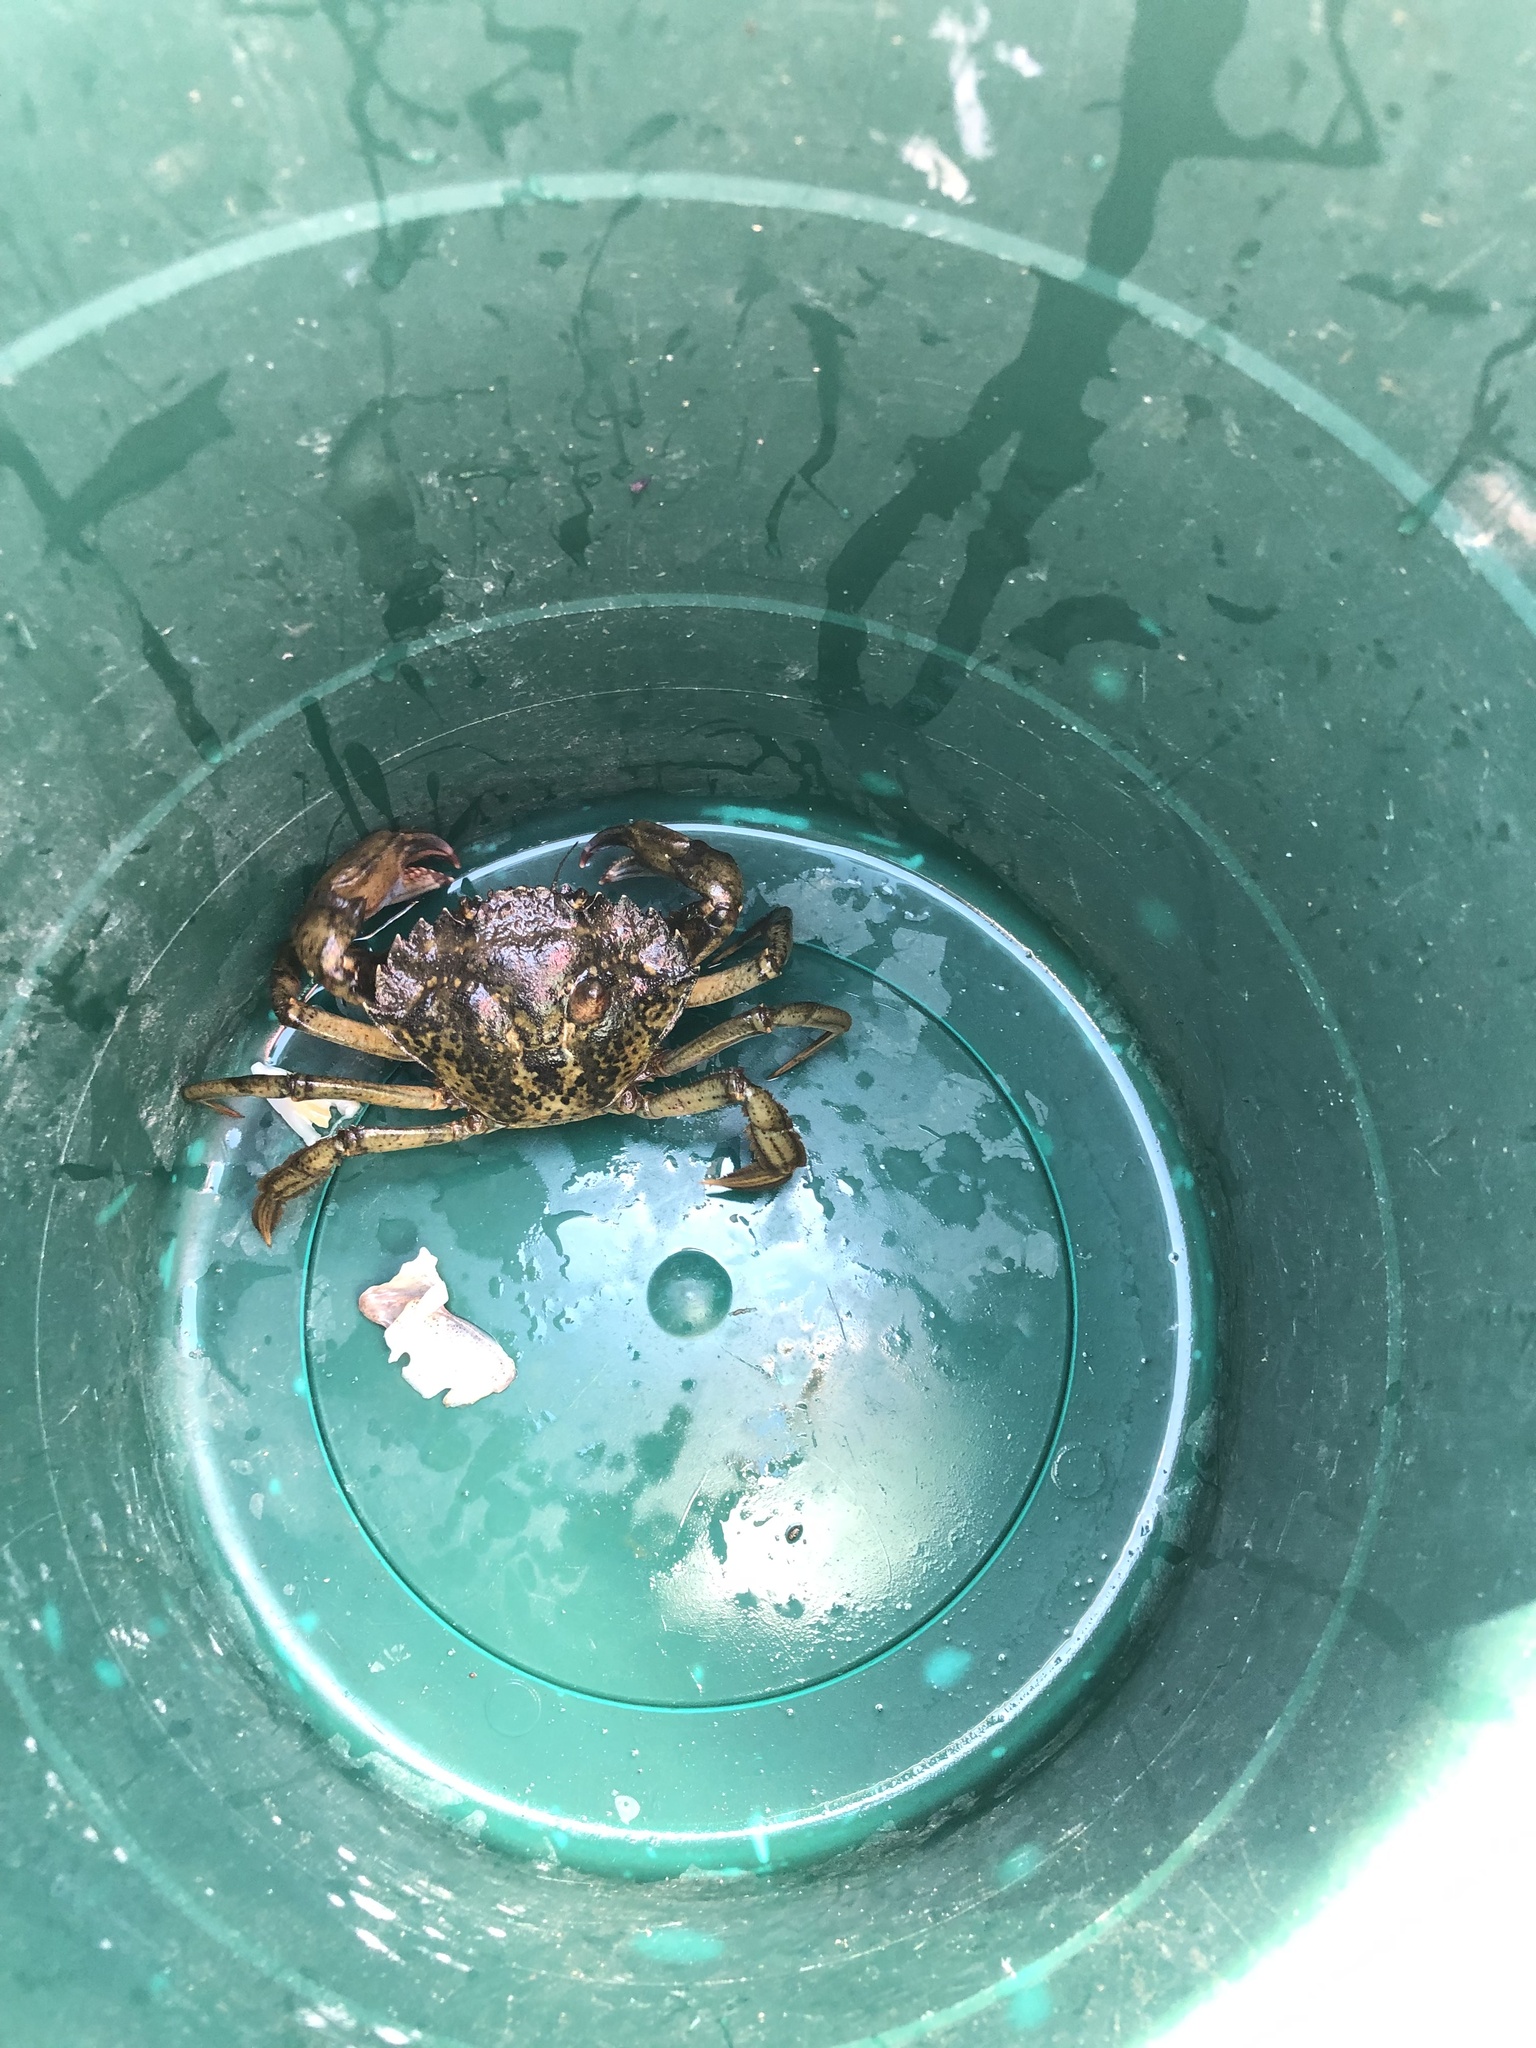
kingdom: Animalia
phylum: Arthropoda
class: Malacostraca
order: Decapoda
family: Carcinidae
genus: Carcinus
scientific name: Carcinus maenas
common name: European green crab
